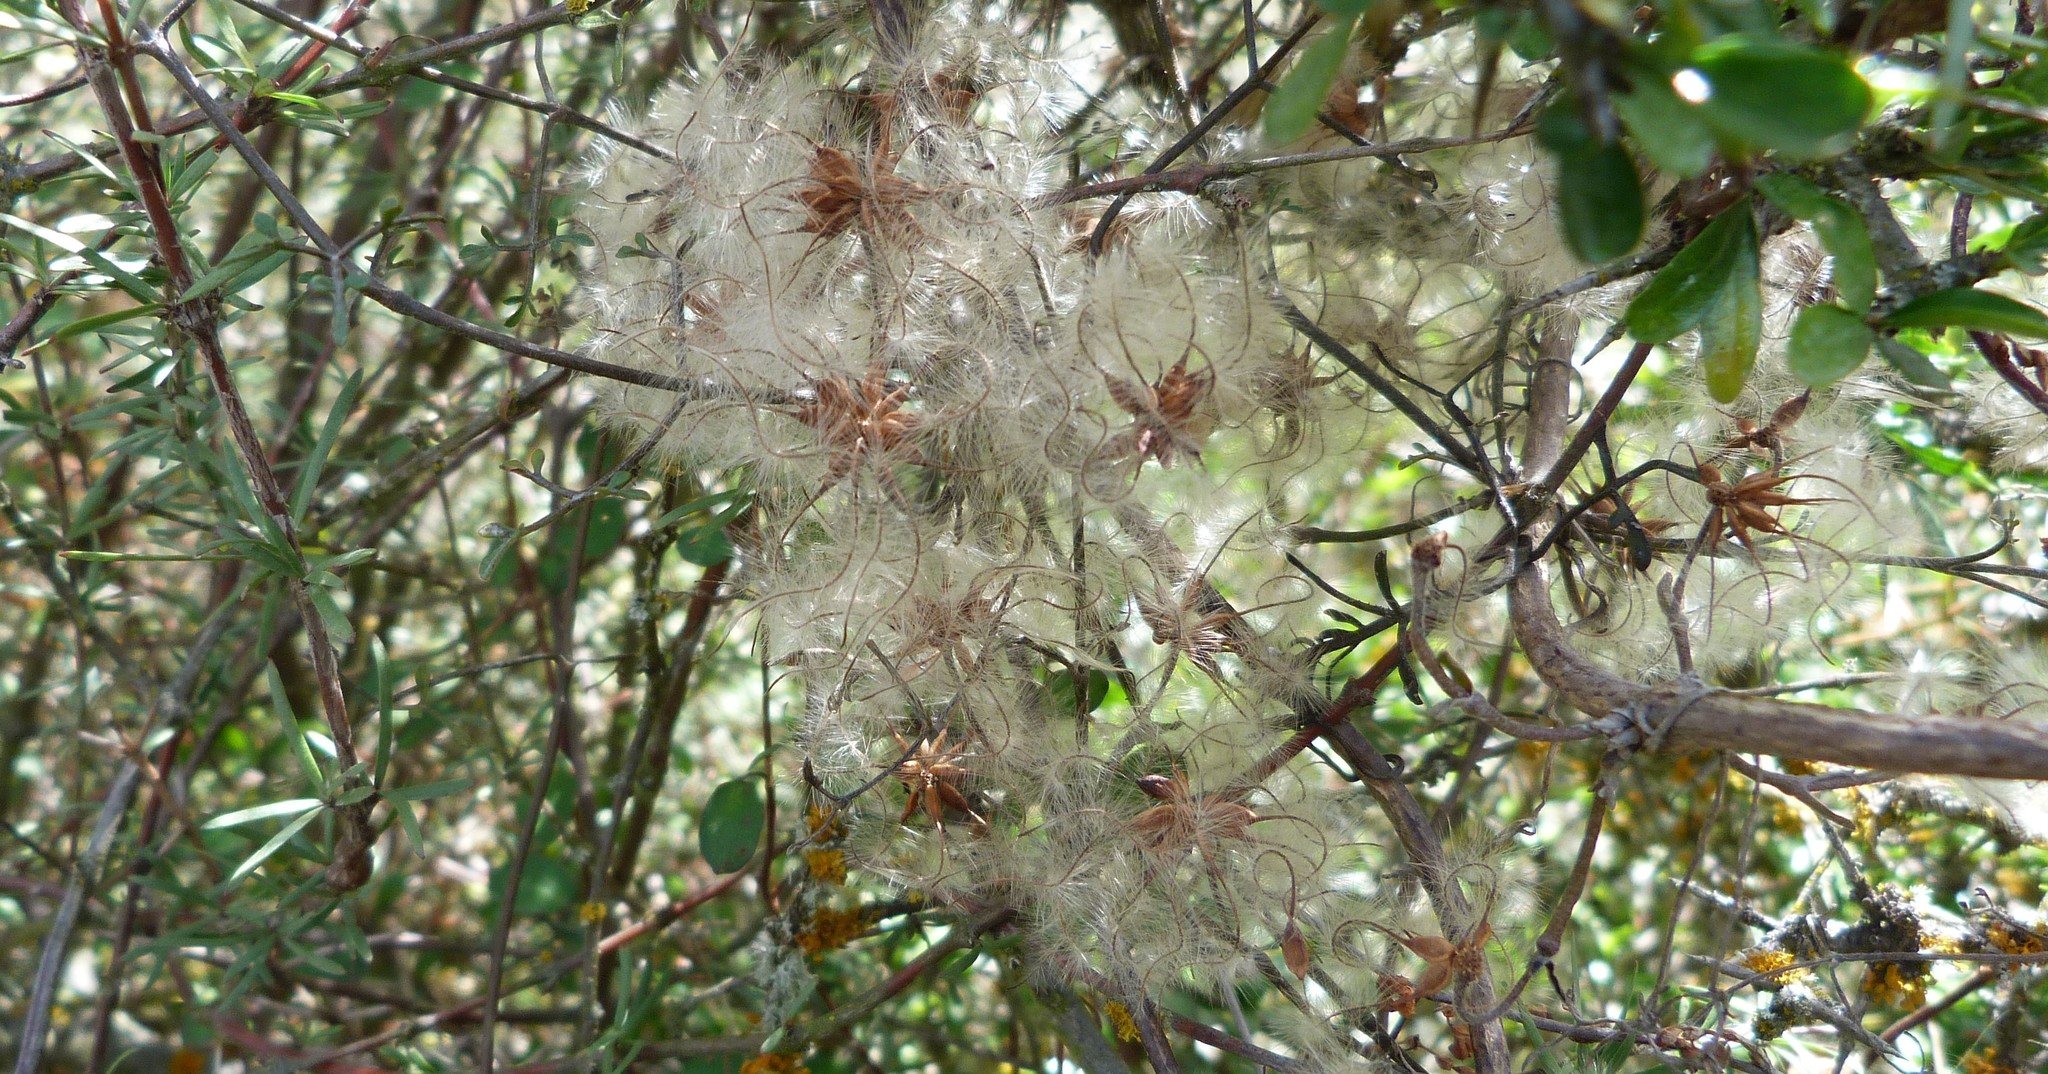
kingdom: Plantae
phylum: Tracheophyta
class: Magnoliopsida
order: Ranunculales
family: Ranunculaceae
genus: Clematis
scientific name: Clematis marata
